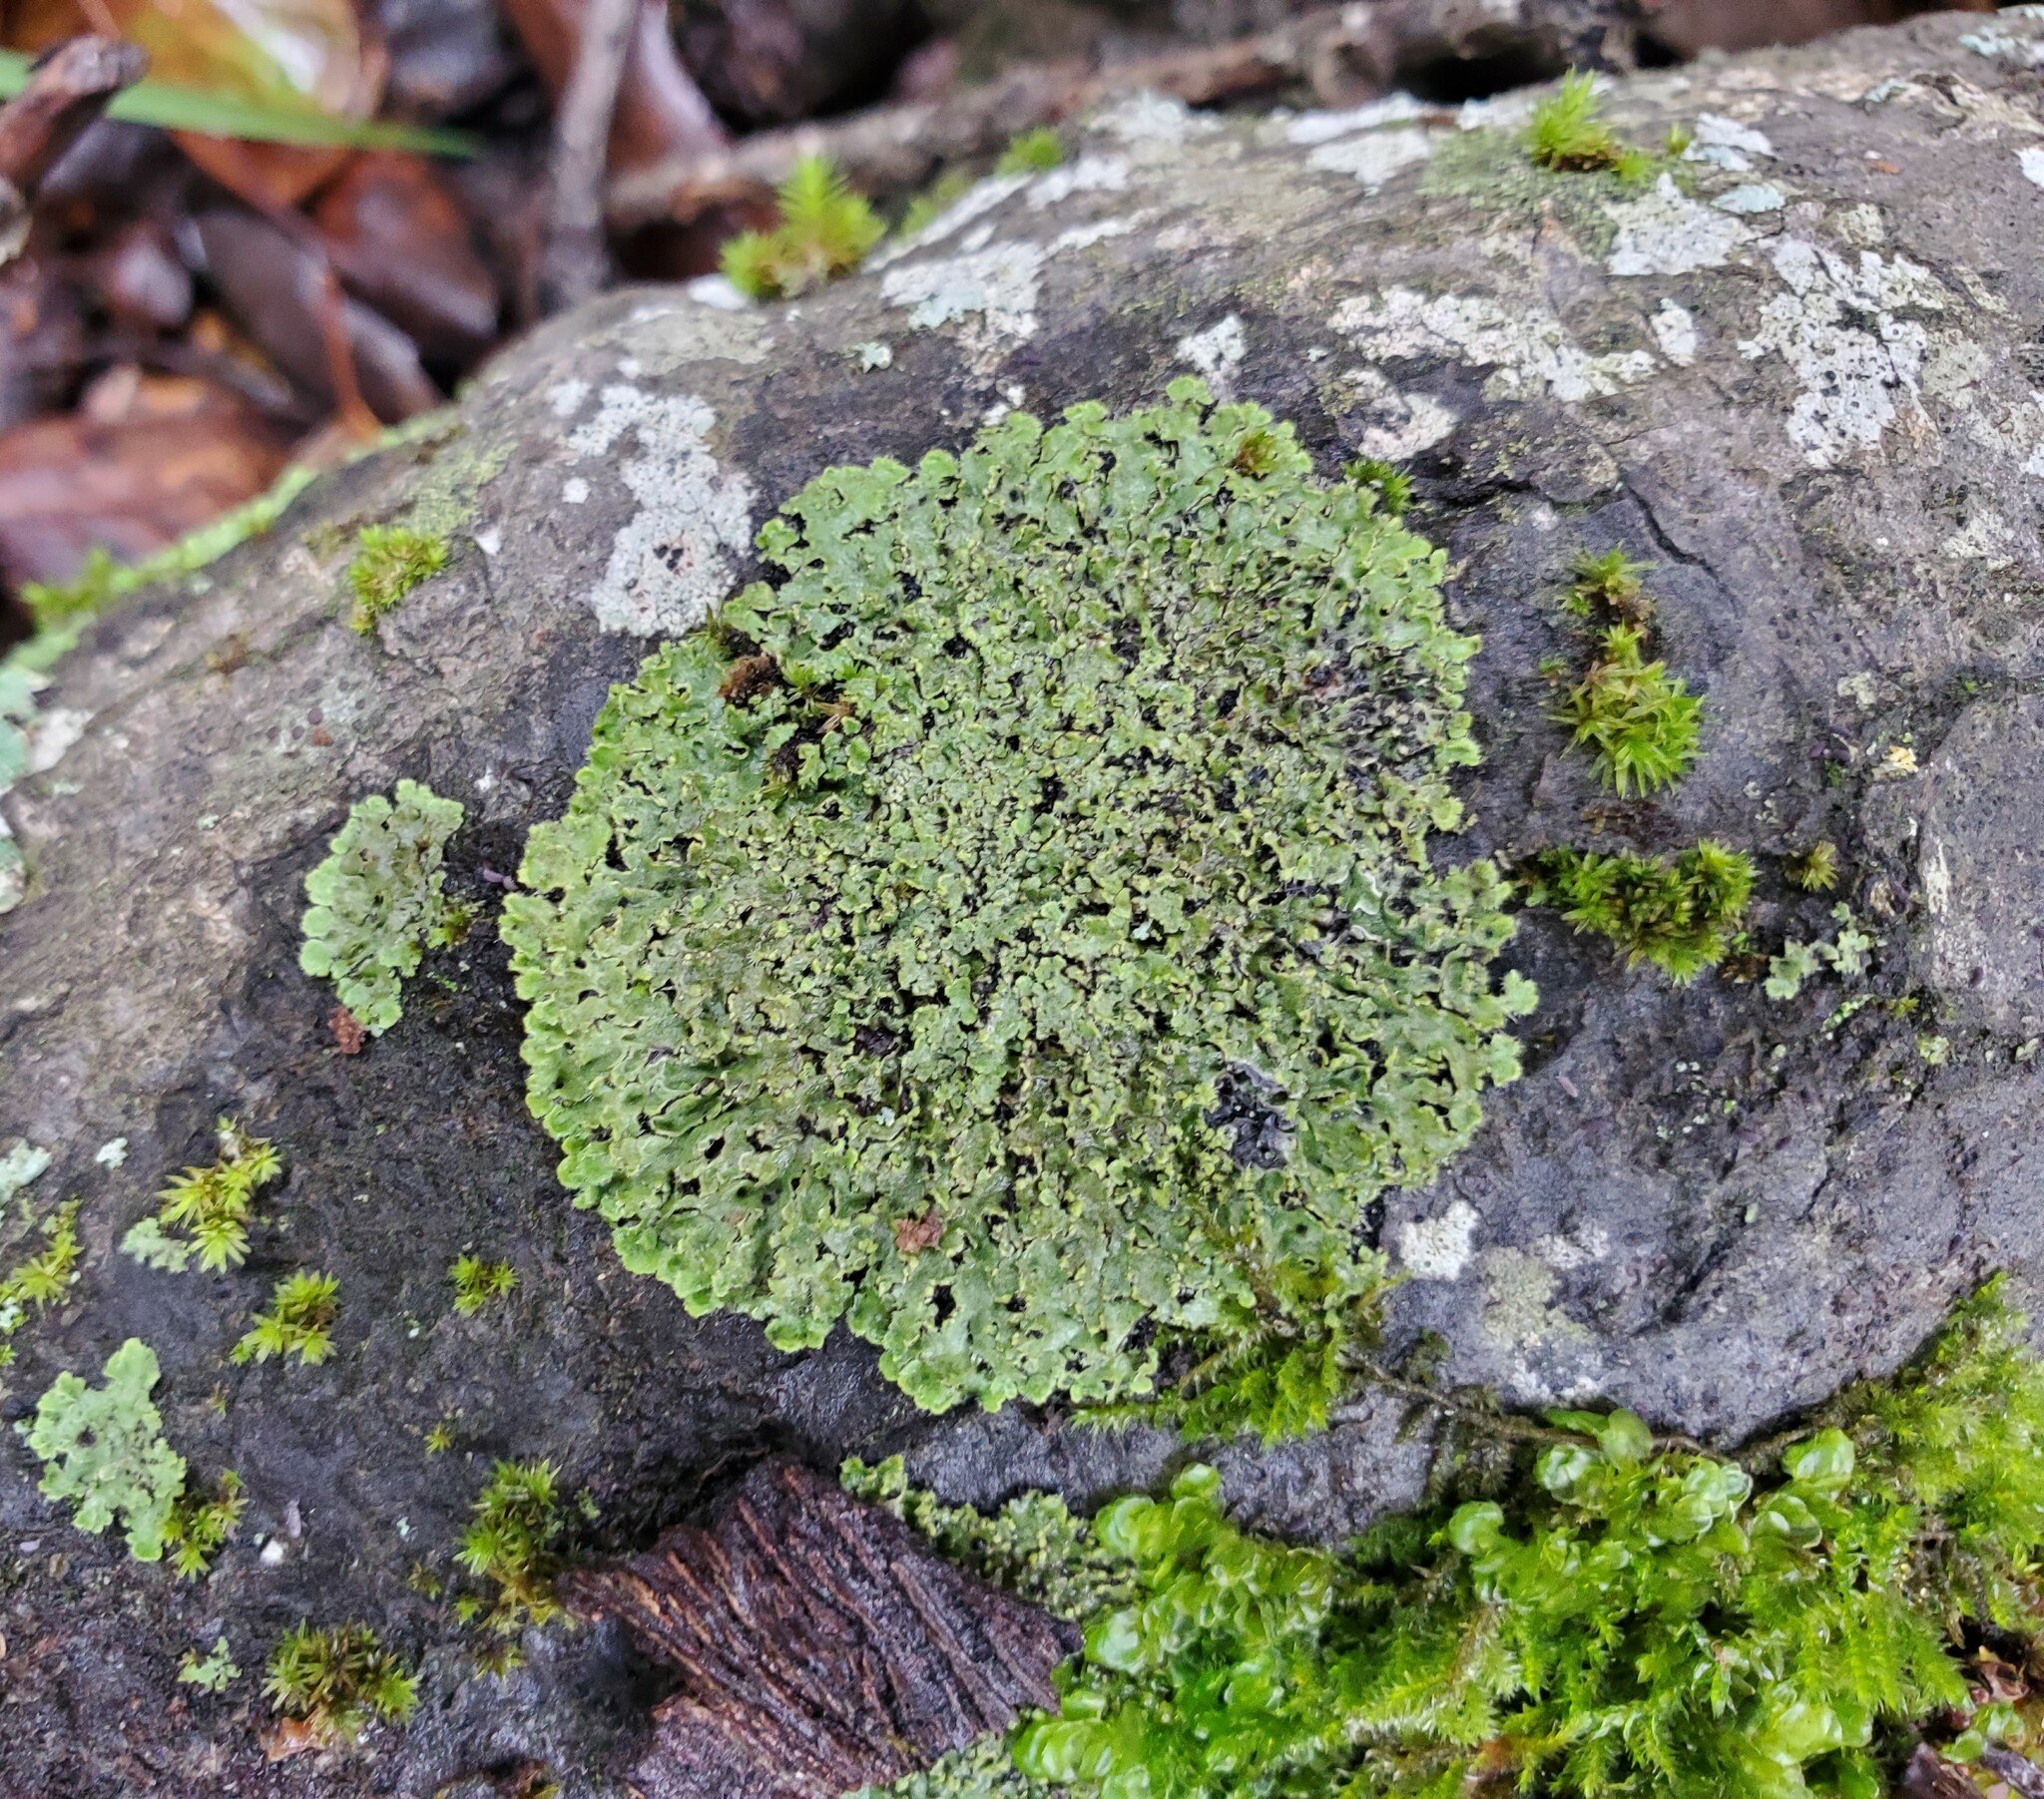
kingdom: Fungi
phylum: Ascomycota
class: Lecanoromycetes
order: Lecanorales
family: Parmeliaceae
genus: Punctelia
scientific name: Punctelia subrudecta
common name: Powdered speckled shield lichen
